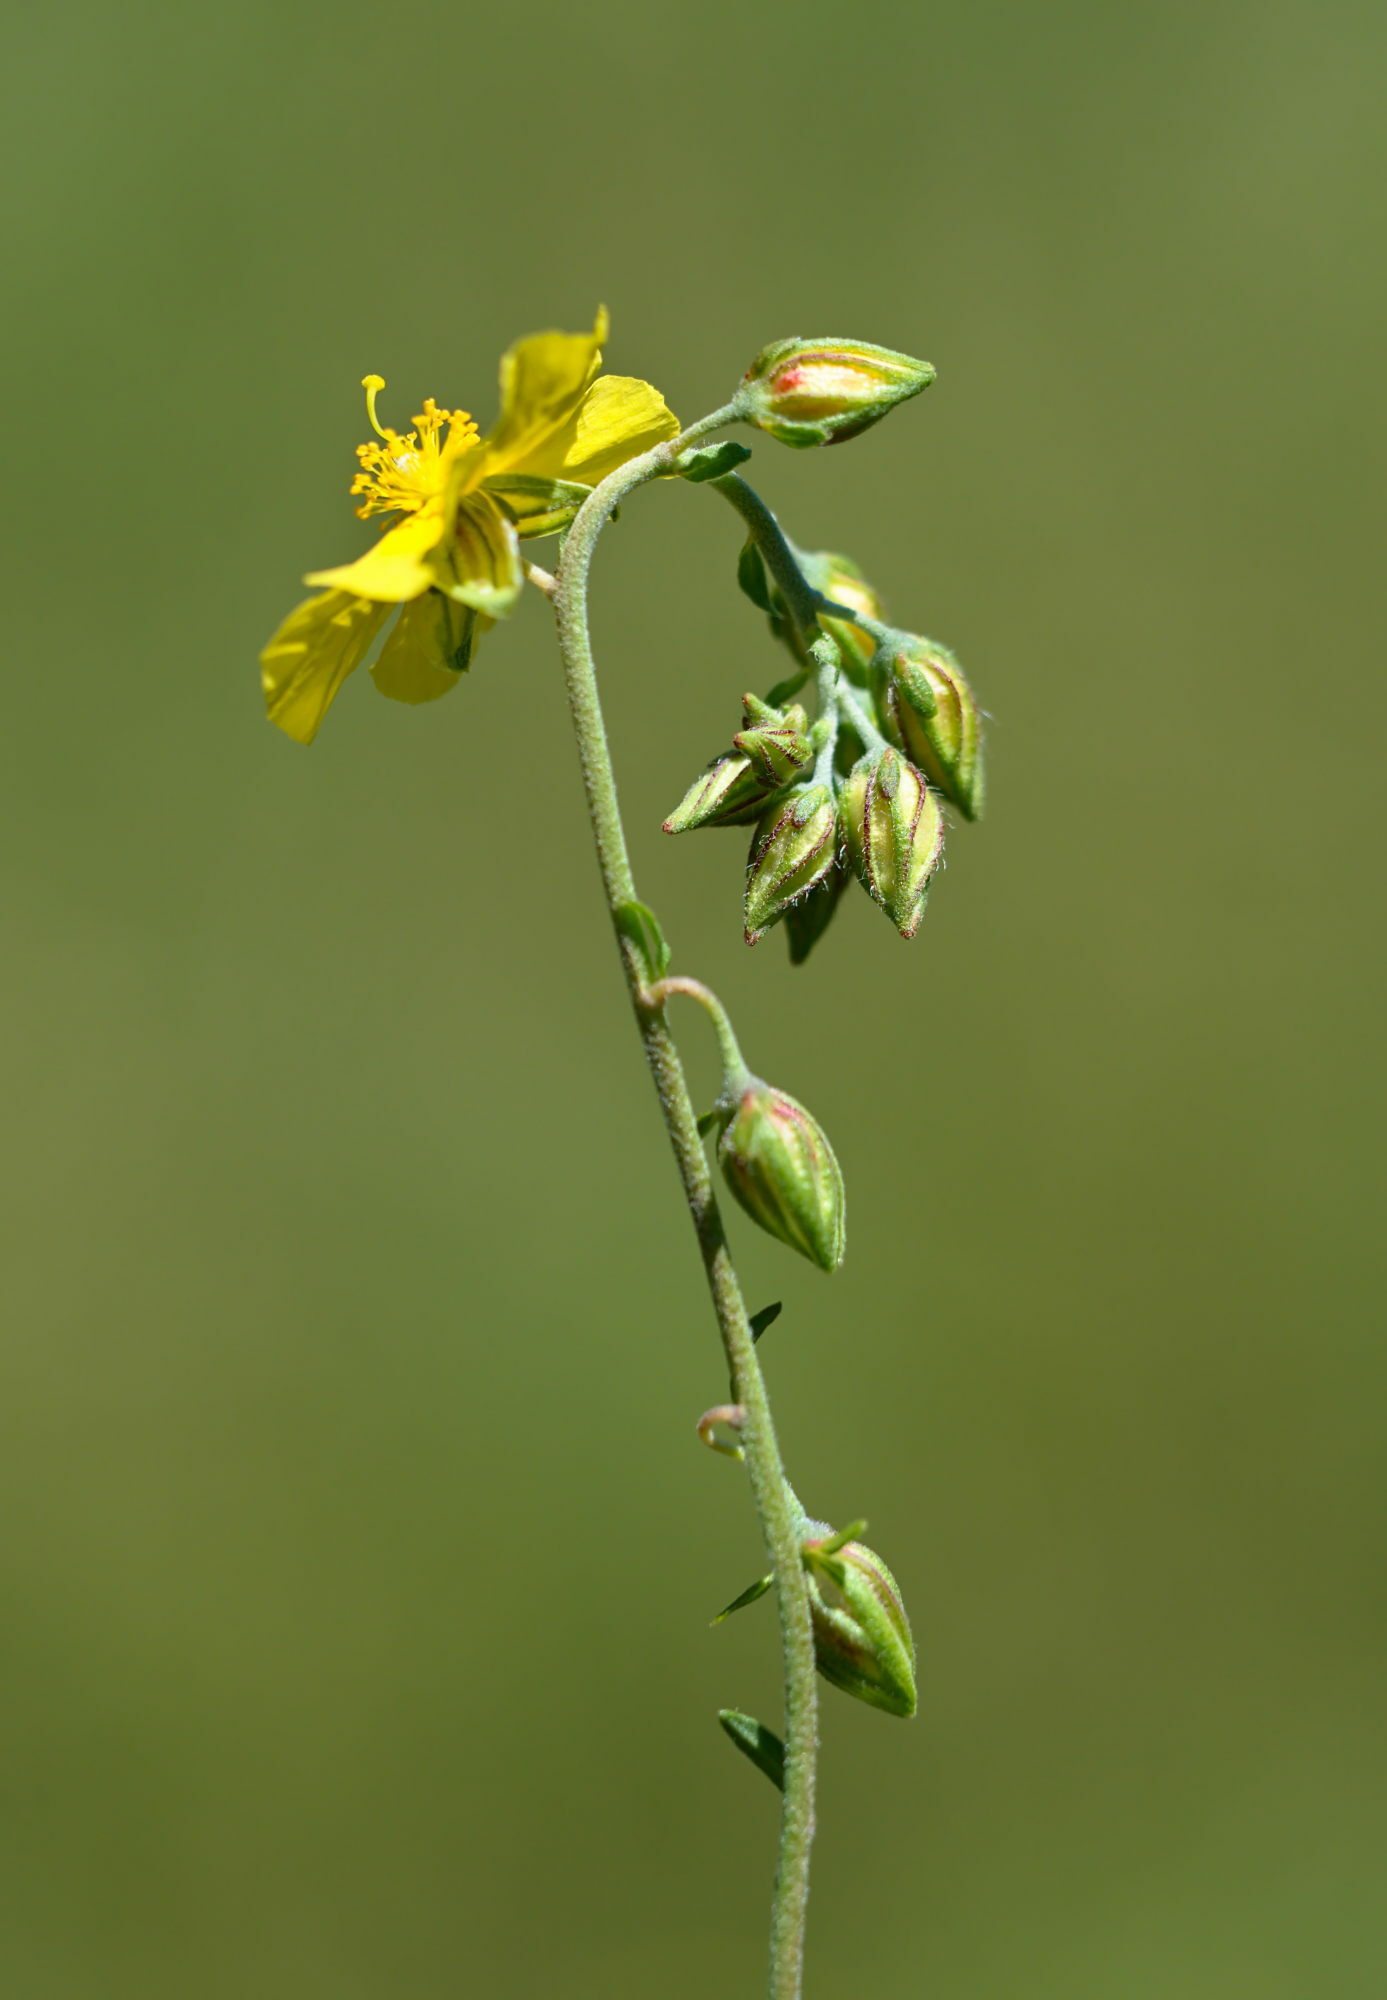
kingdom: Plantae
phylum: Tracheophyta
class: Magnoliopsida
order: Malvales
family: Cistaceae
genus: Helianthemum
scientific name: Helianthemum nummularium
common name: Common rock-rose
